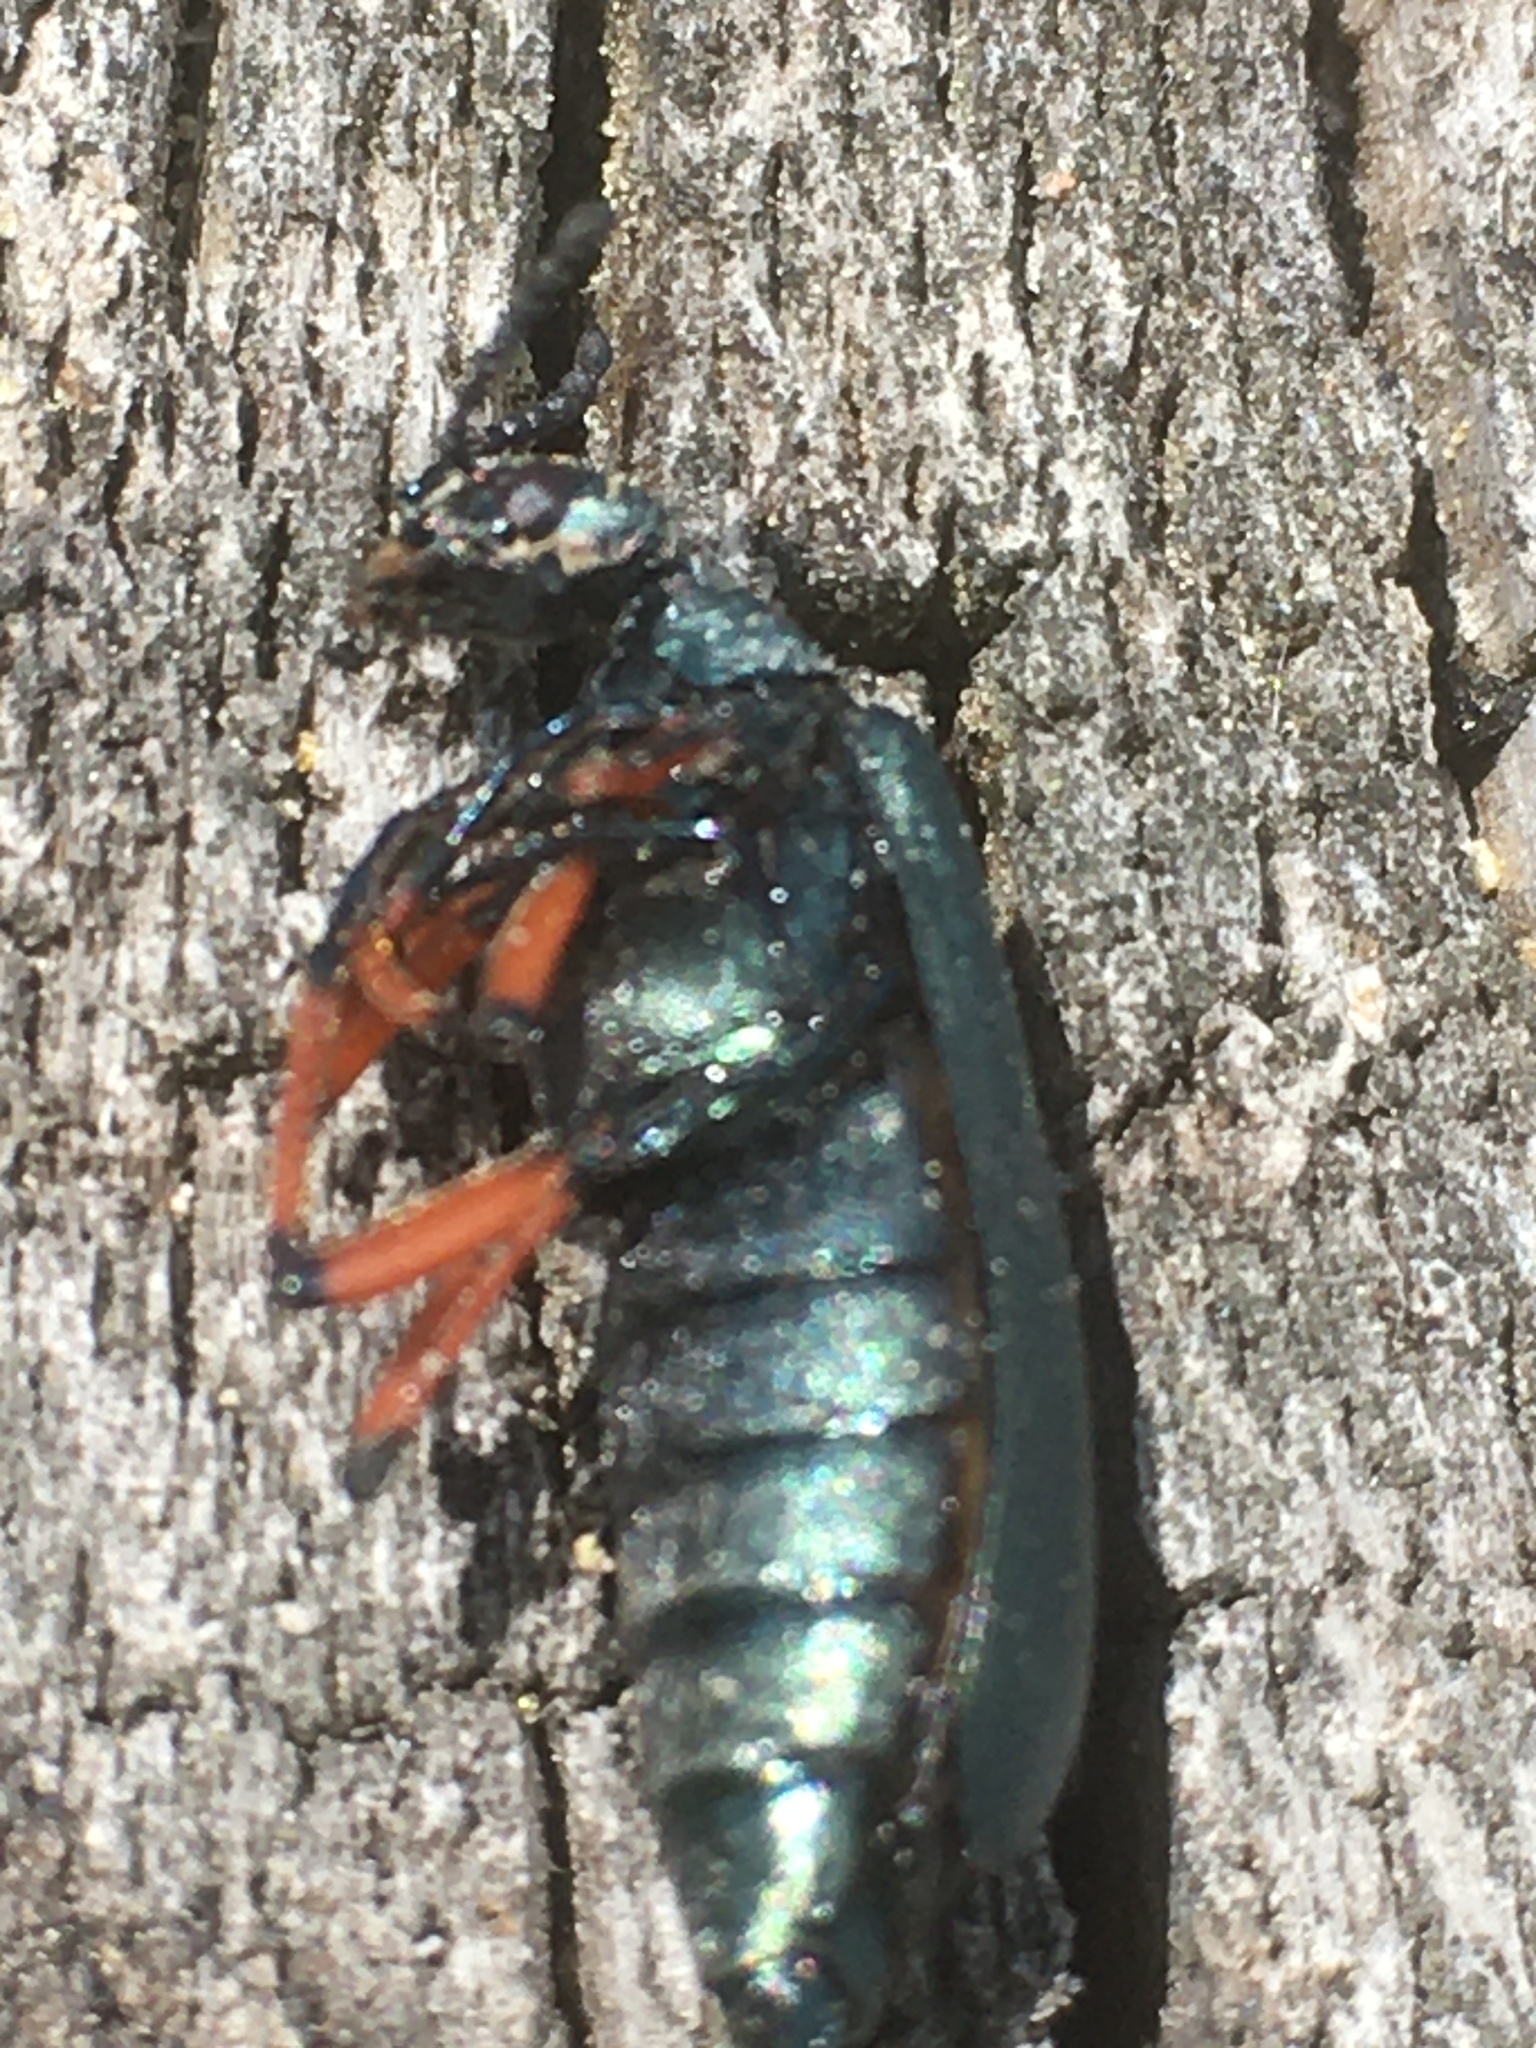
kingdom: Animalia
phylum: Arthropoda
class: Insecta
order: Coleoptera
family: Meloidae
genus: Lytta
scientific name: Lytta sayi
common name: Say's blister beetle
